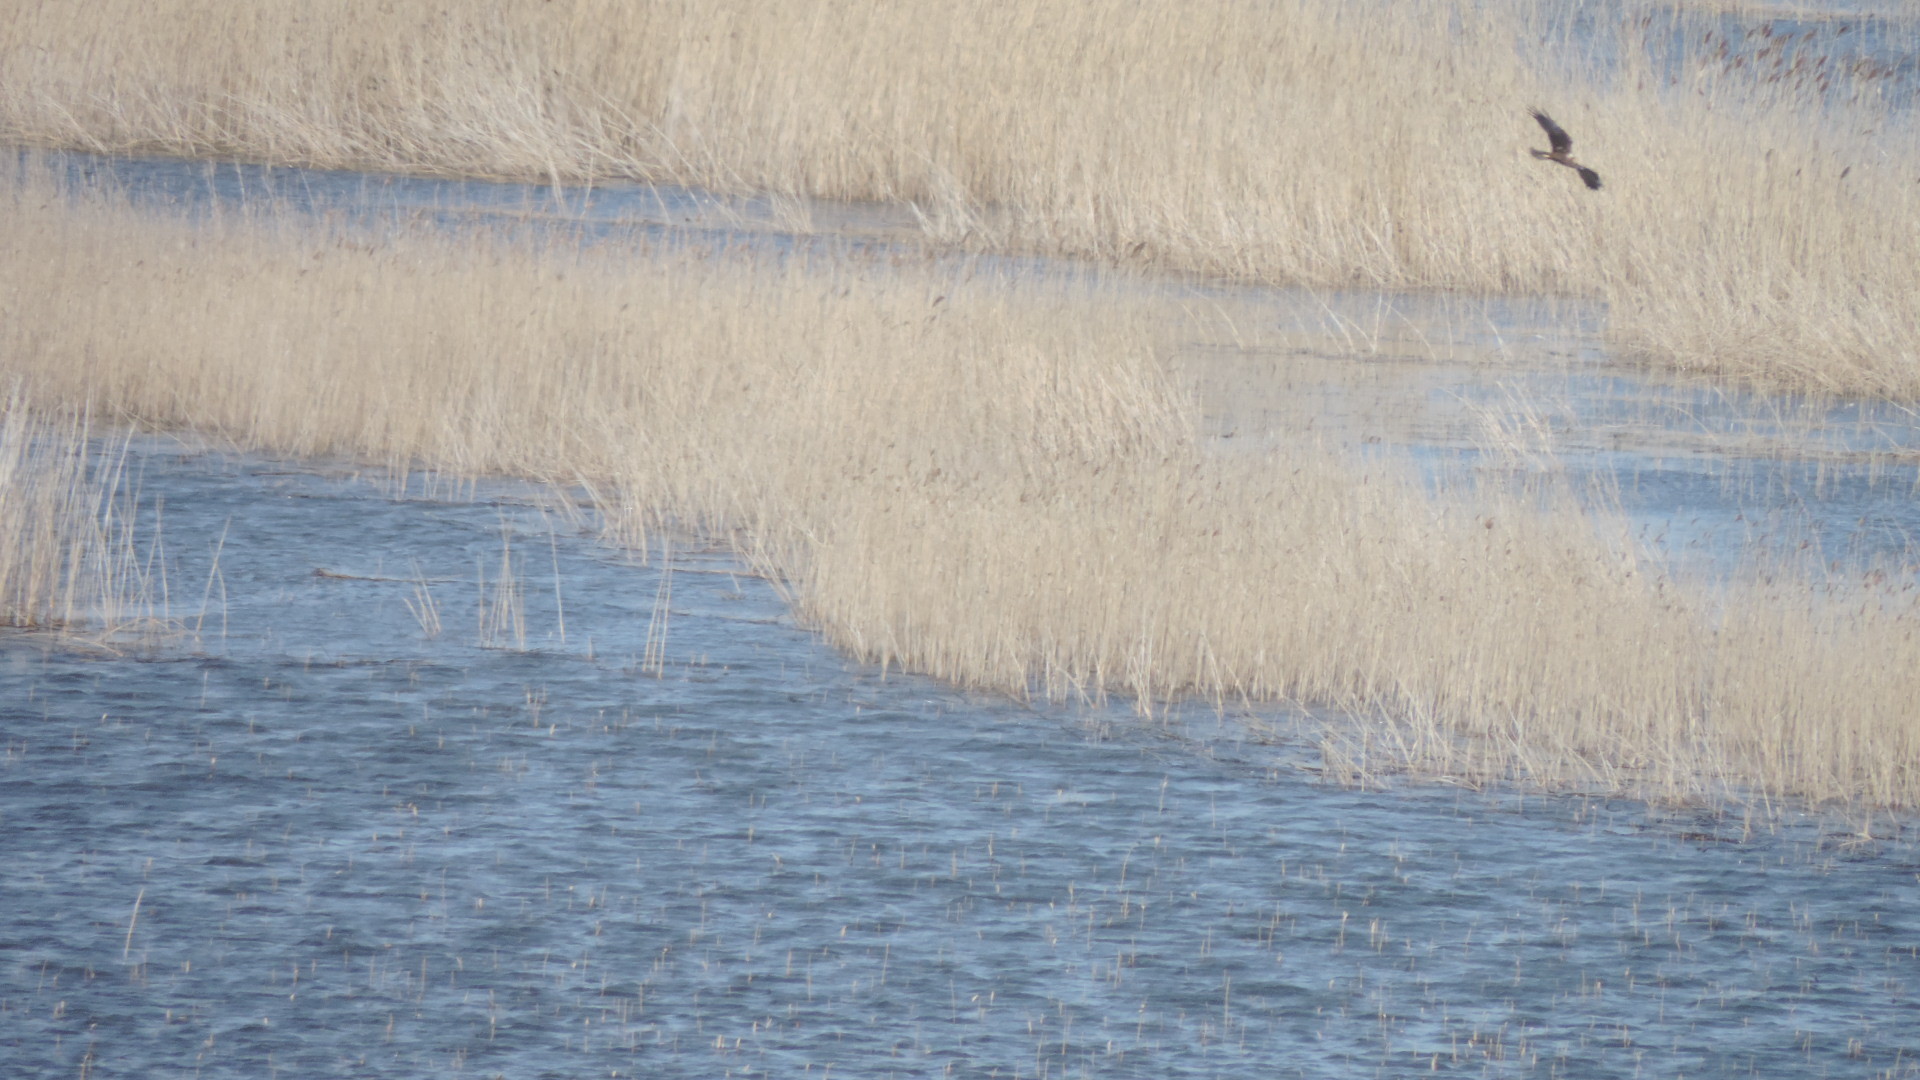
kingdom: Animalia
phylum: Chordata
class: Aves
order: Accipitriformes
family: Accipitridae
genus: Circus
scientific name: Circus aeruginosus
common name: Western marsh harrier
